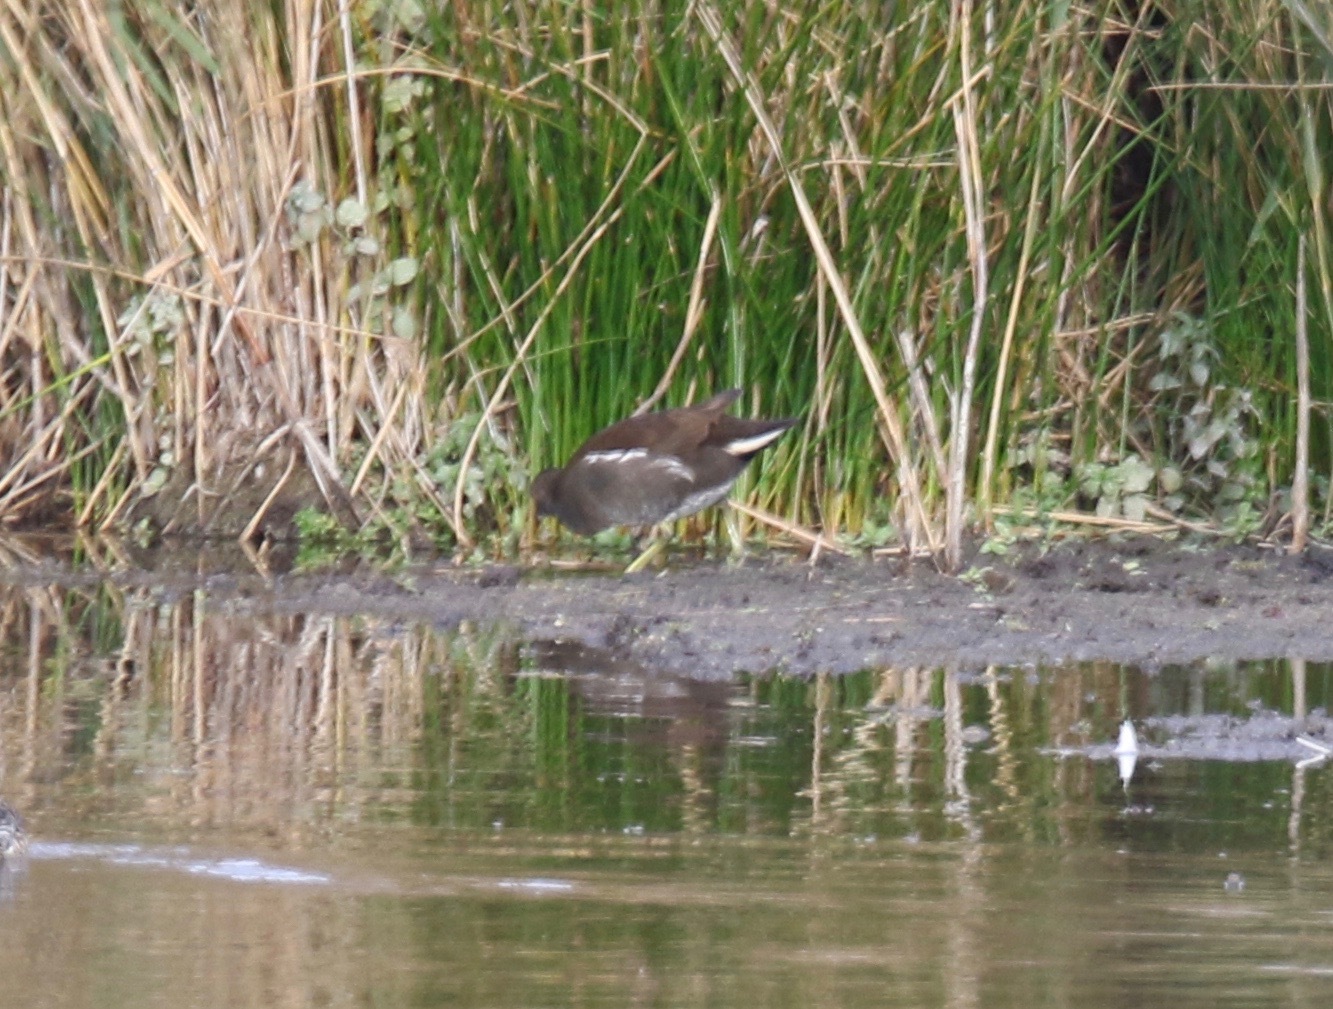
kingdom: Animalia
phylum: Chordata
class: Aves
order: Gruiformes
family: Rallidae
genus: Gallinula
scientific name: Gallinula chloropus
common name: Common moorhen
